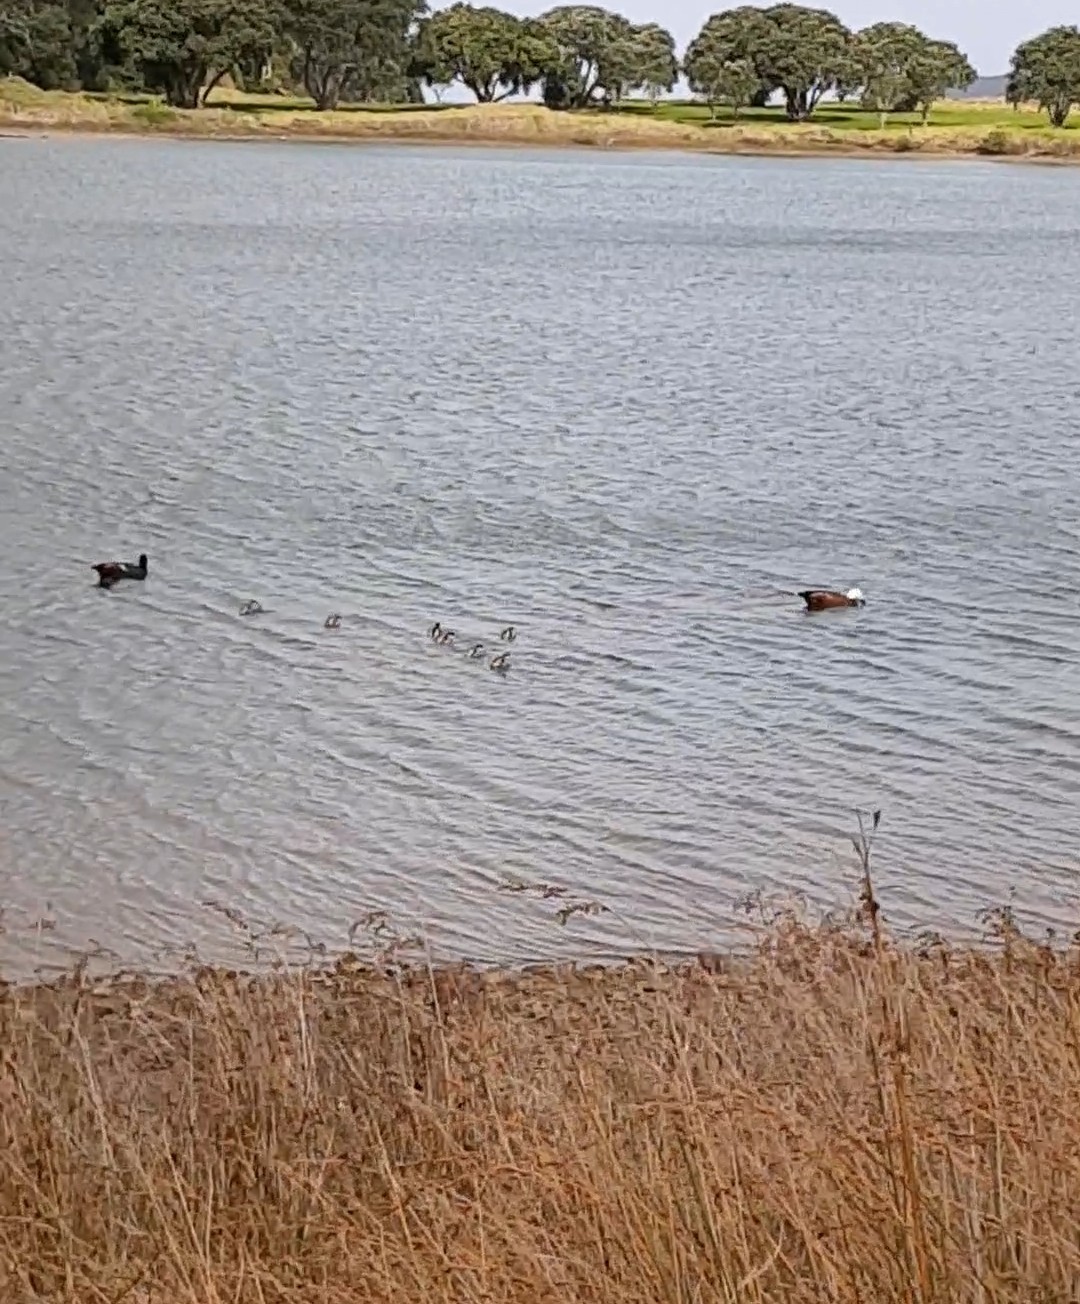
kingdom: Animalia
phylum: Chordata
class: Aves
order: Anseriformes
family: Anatidae
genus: Tadorna
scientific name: Tadorna variegata
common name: Paradise shelduck
